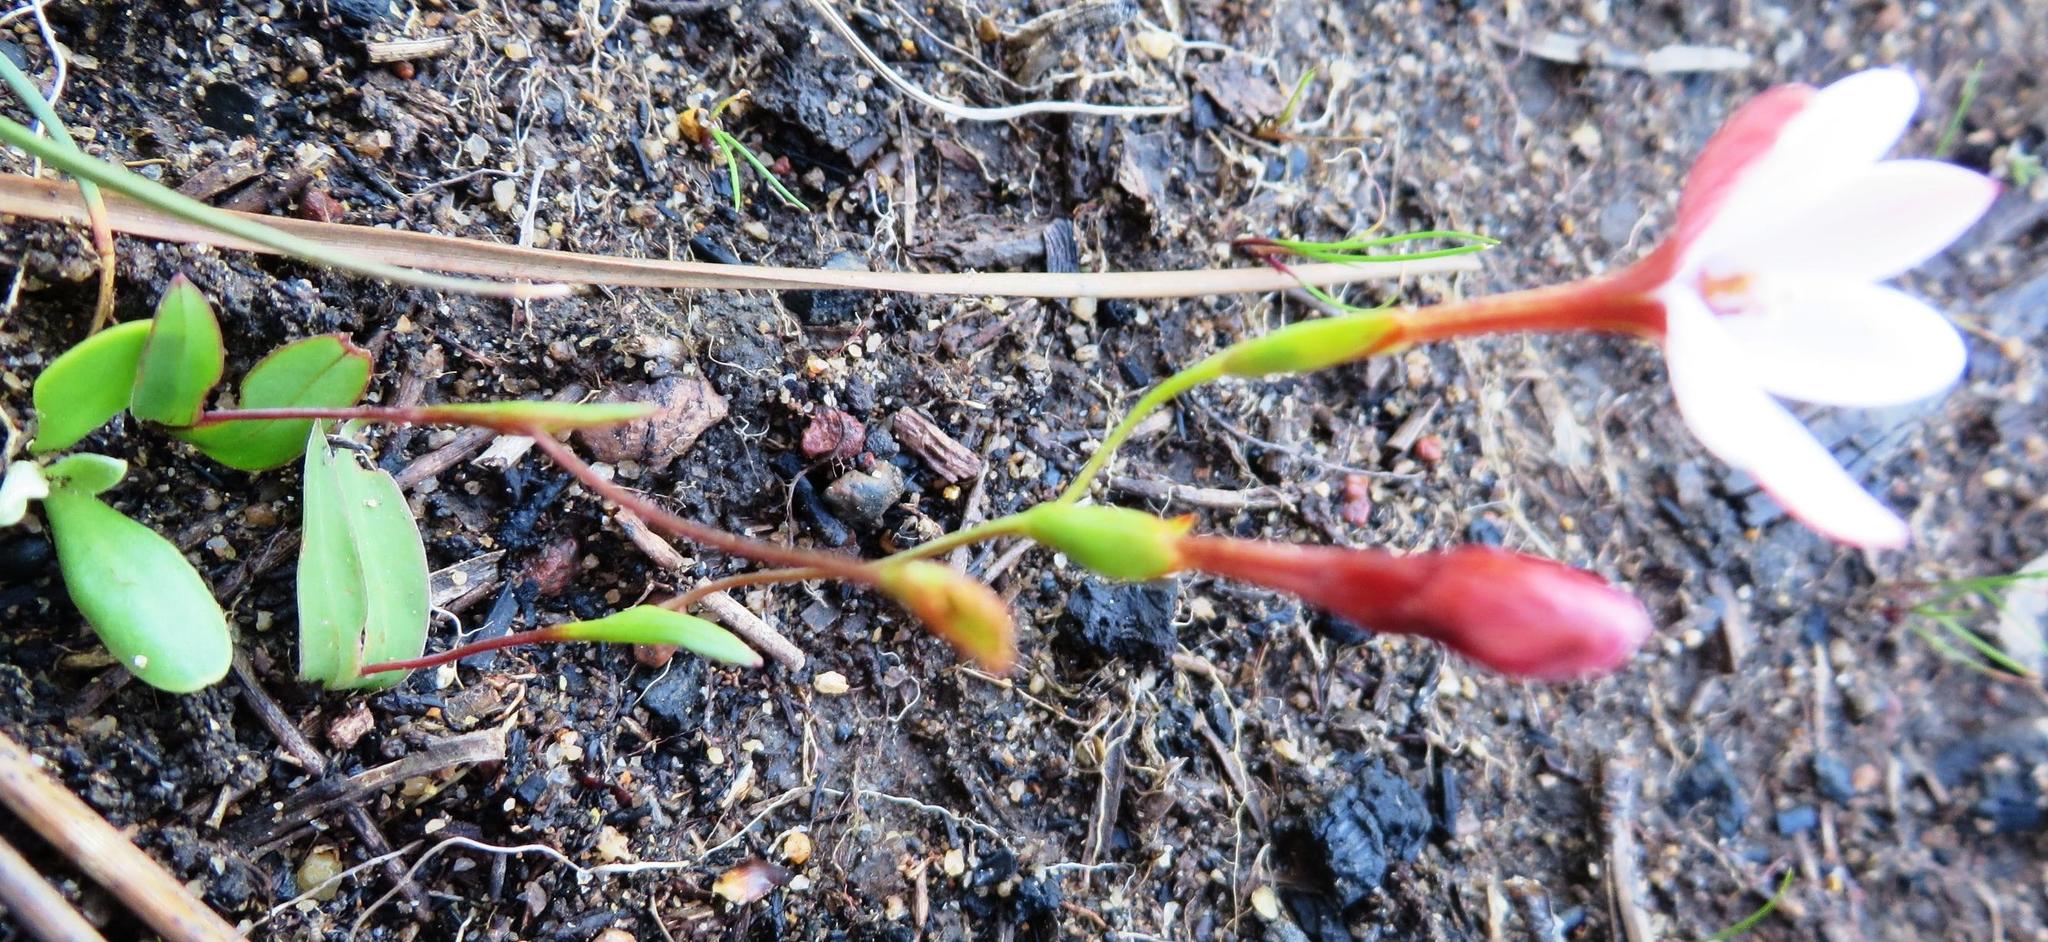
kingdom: Plantae
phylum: Tracheophyta
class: Liliopsida
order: Asparagales
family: Iridaceae
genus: Geissorhiza
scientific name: Geissorhiza ovata
